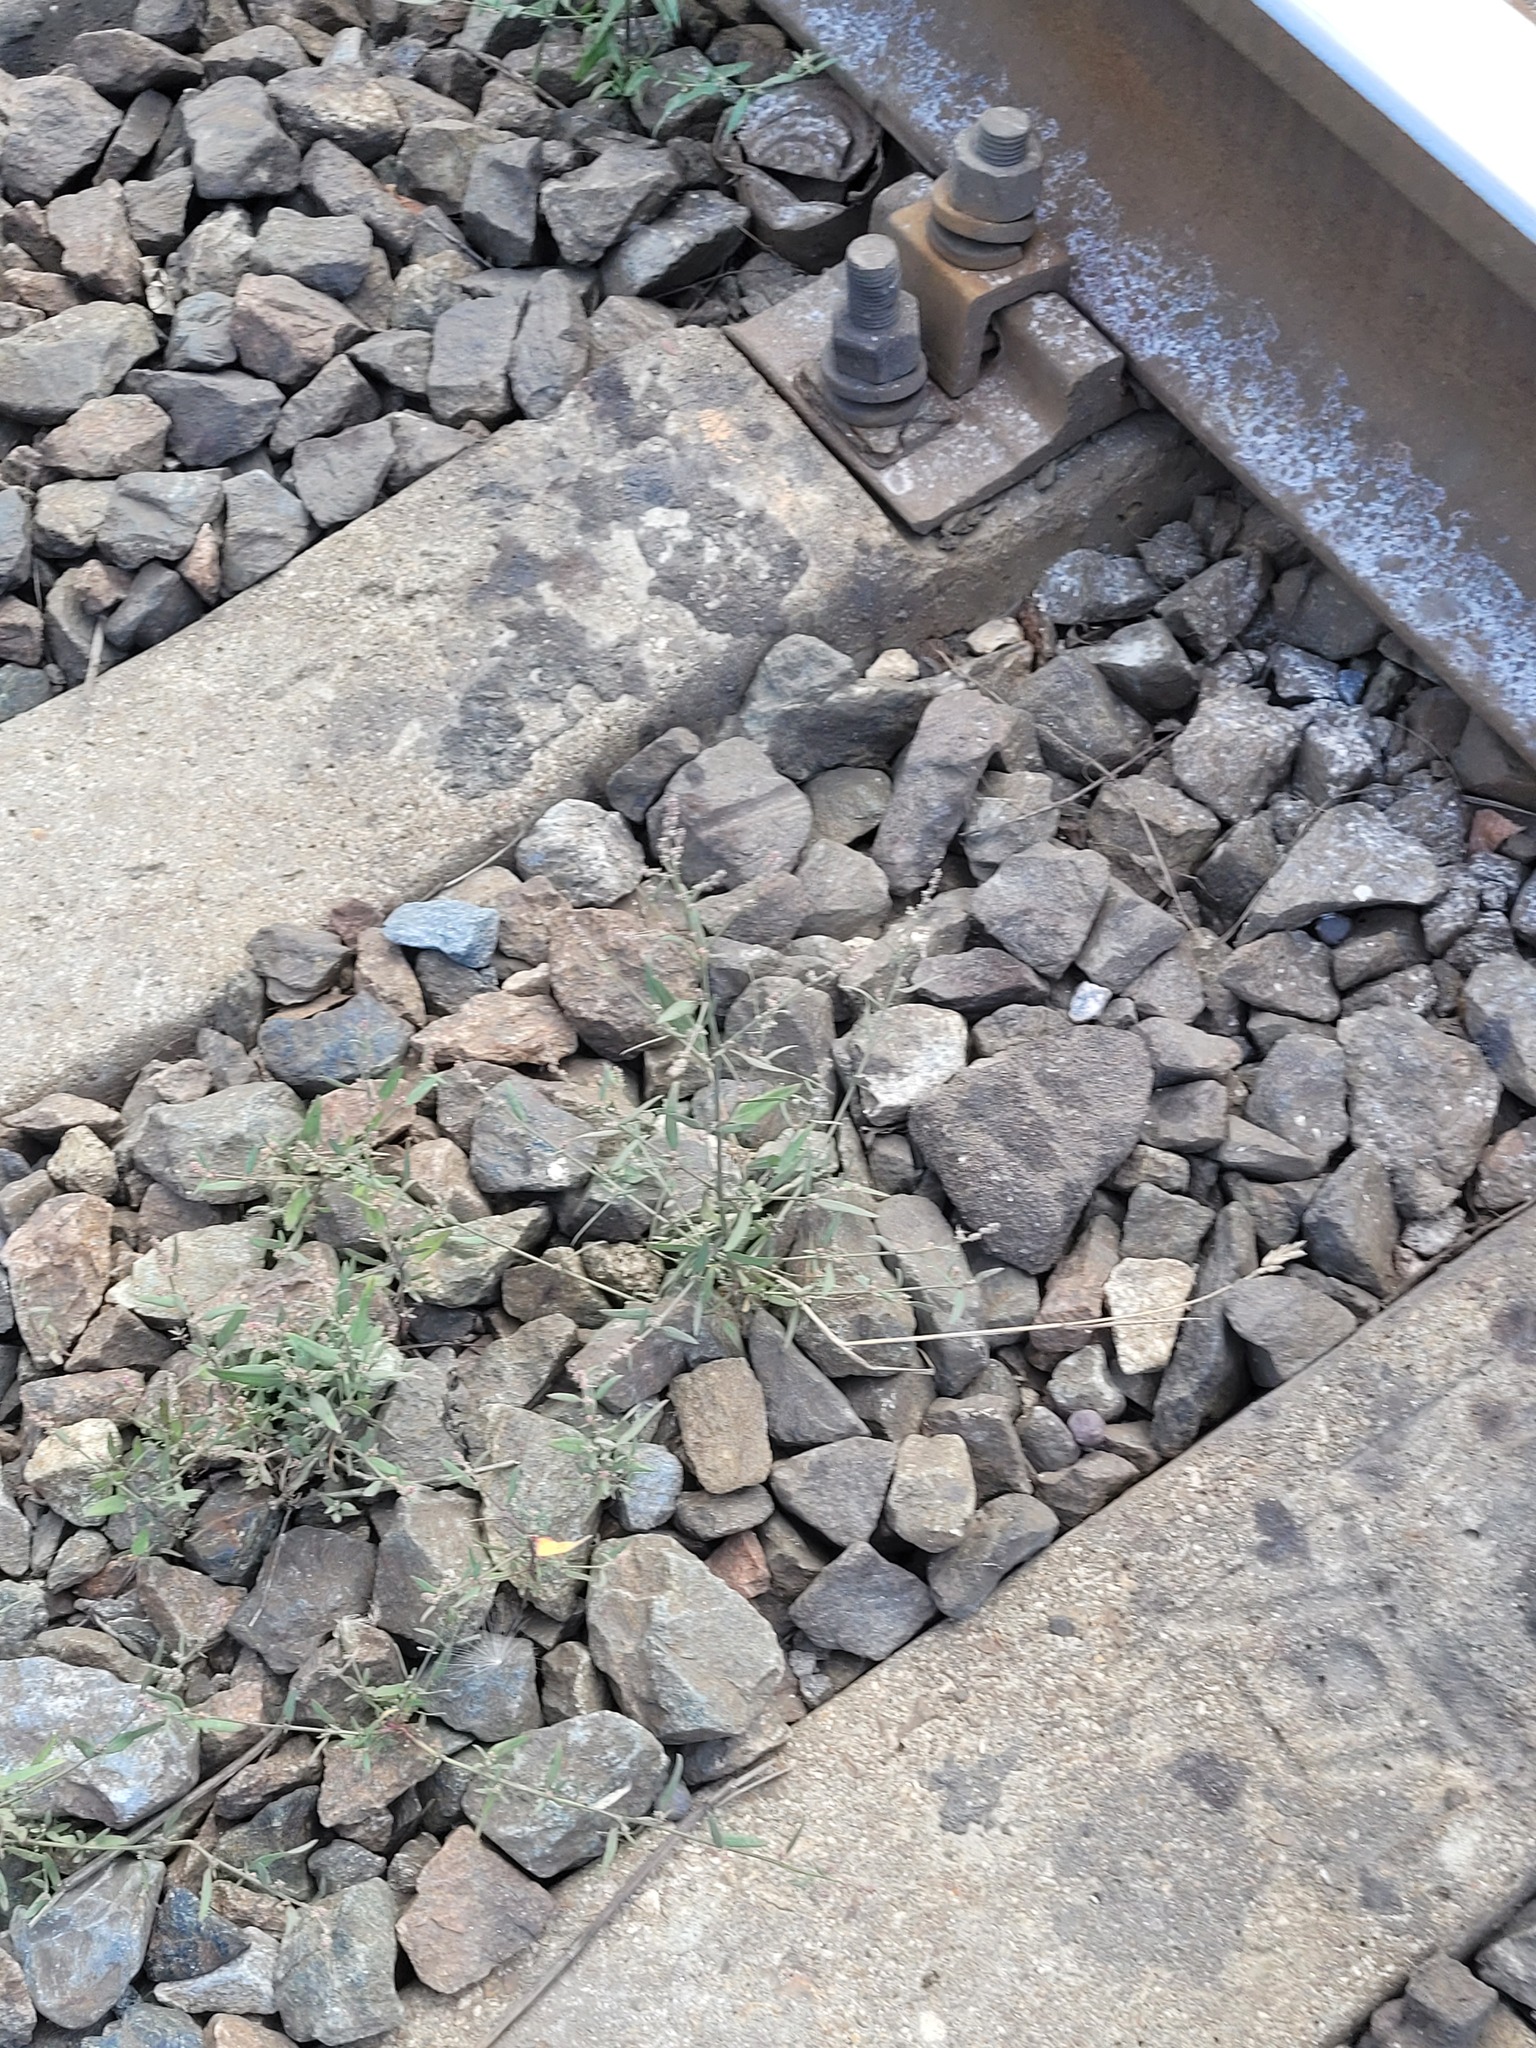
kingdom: Plantae
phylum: Tracheophyta
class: Magnoliopsida
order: Caryophyllales
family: Amaranthaceae
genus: Atriplex
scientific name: Atriplex patula
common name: Common orache
